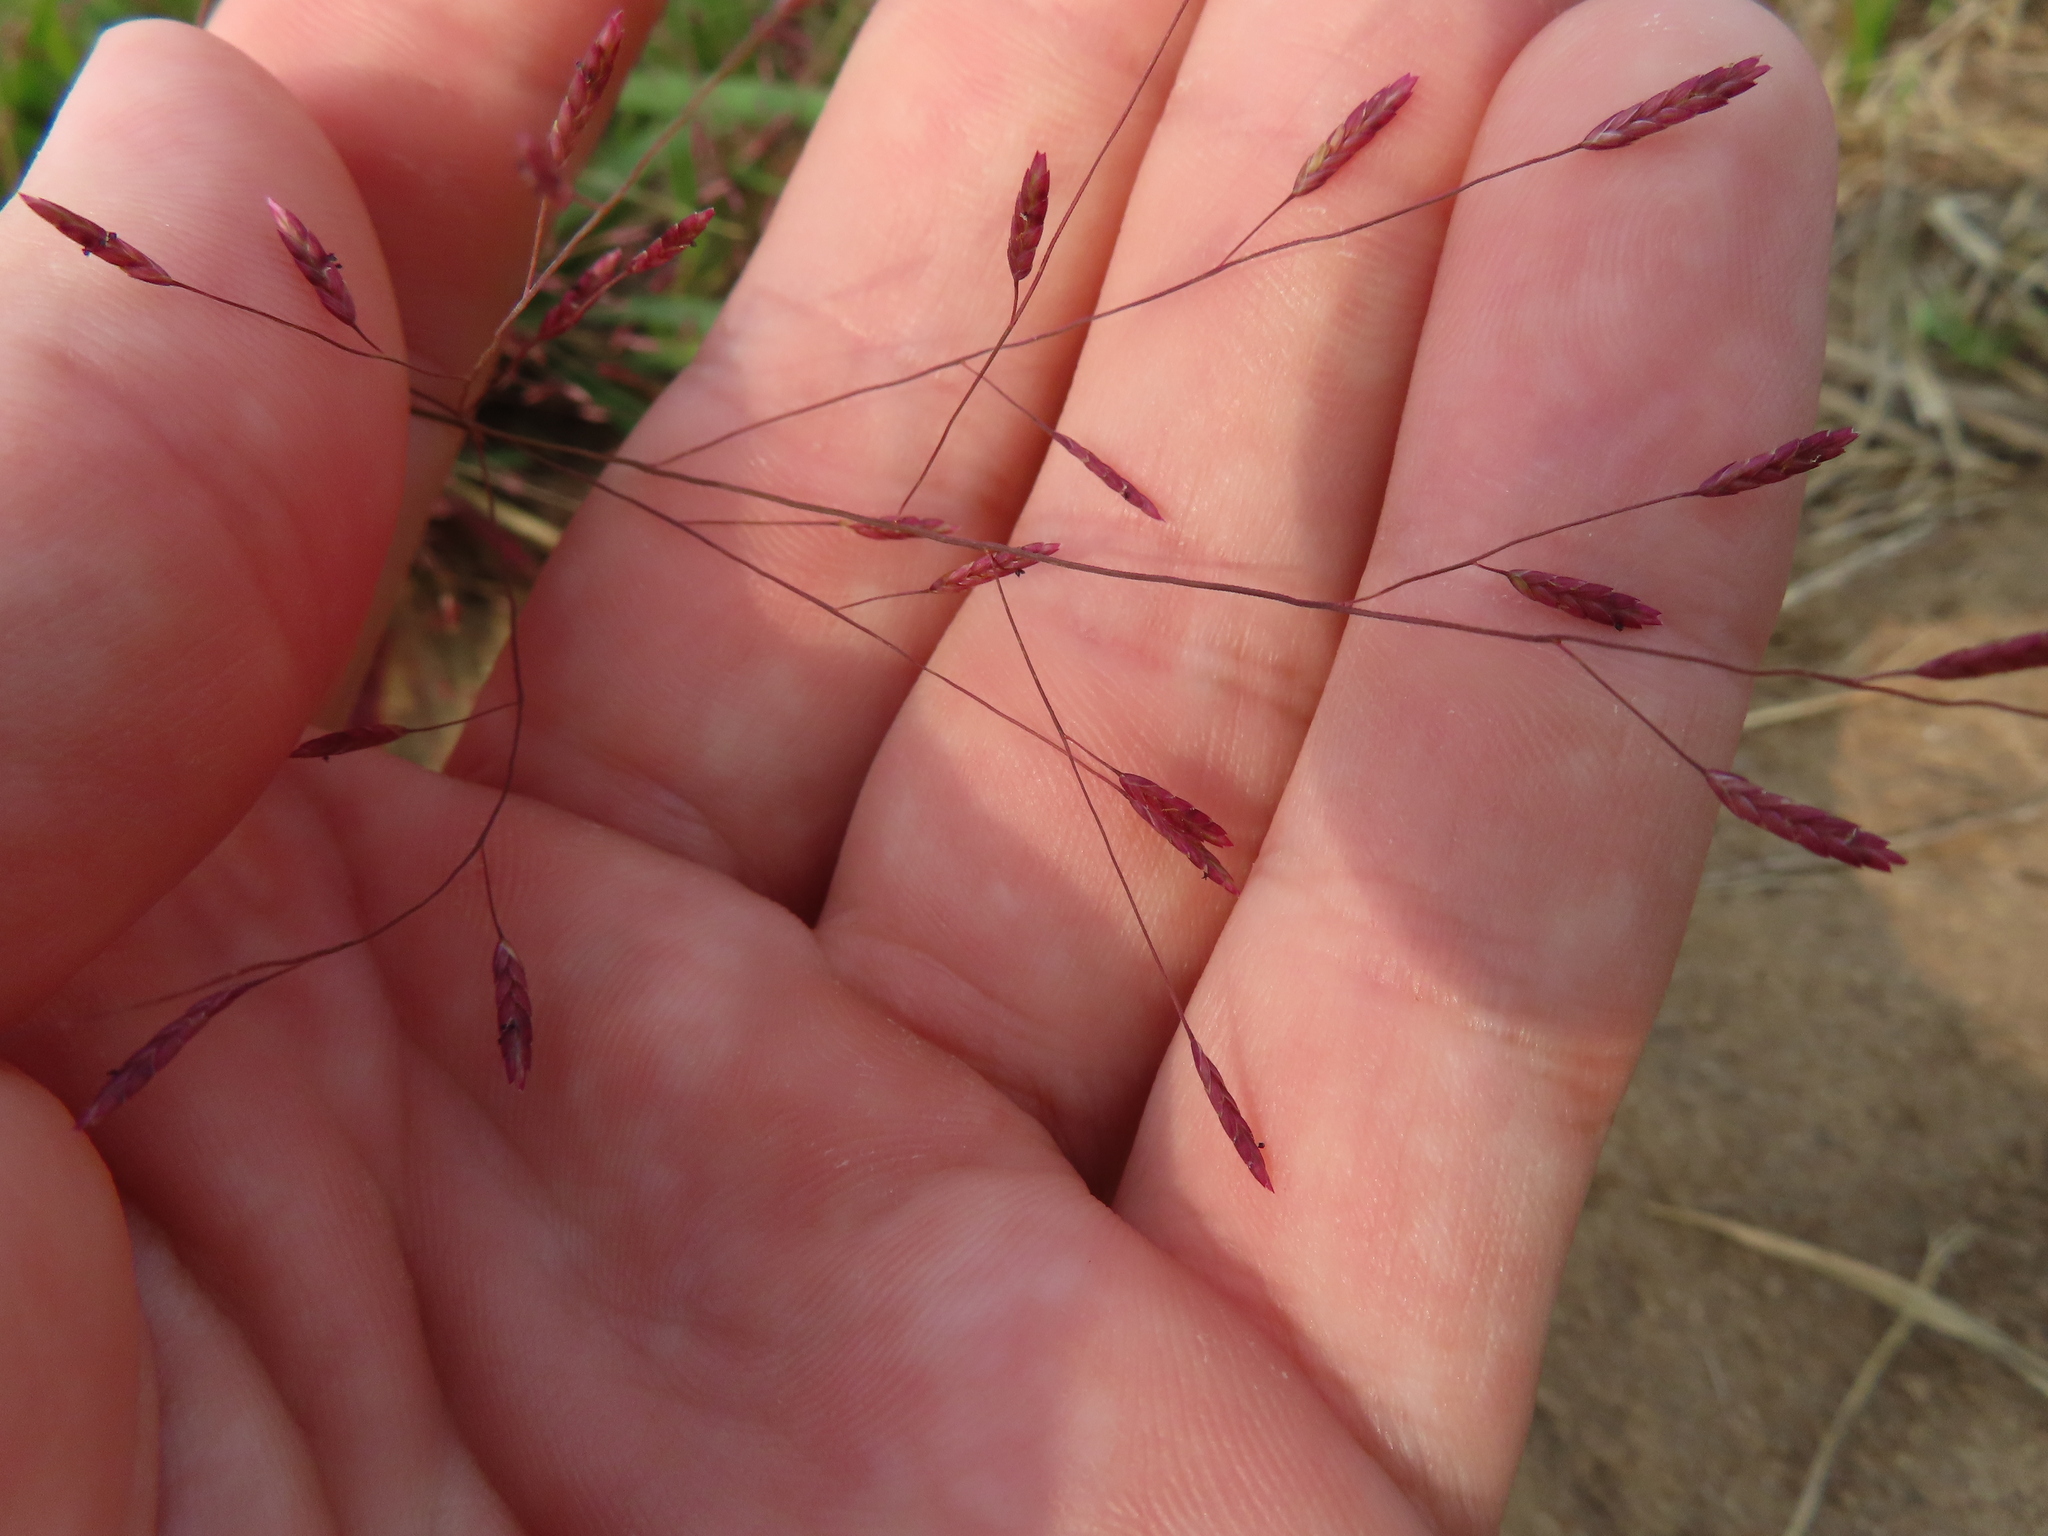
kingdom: Plantae
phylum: Tracheophyta
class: Liliopsida
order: Poales
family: Poaceae
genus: Eragrostis
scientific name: Eragrostis spectabilis
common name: Petticoat-climber
